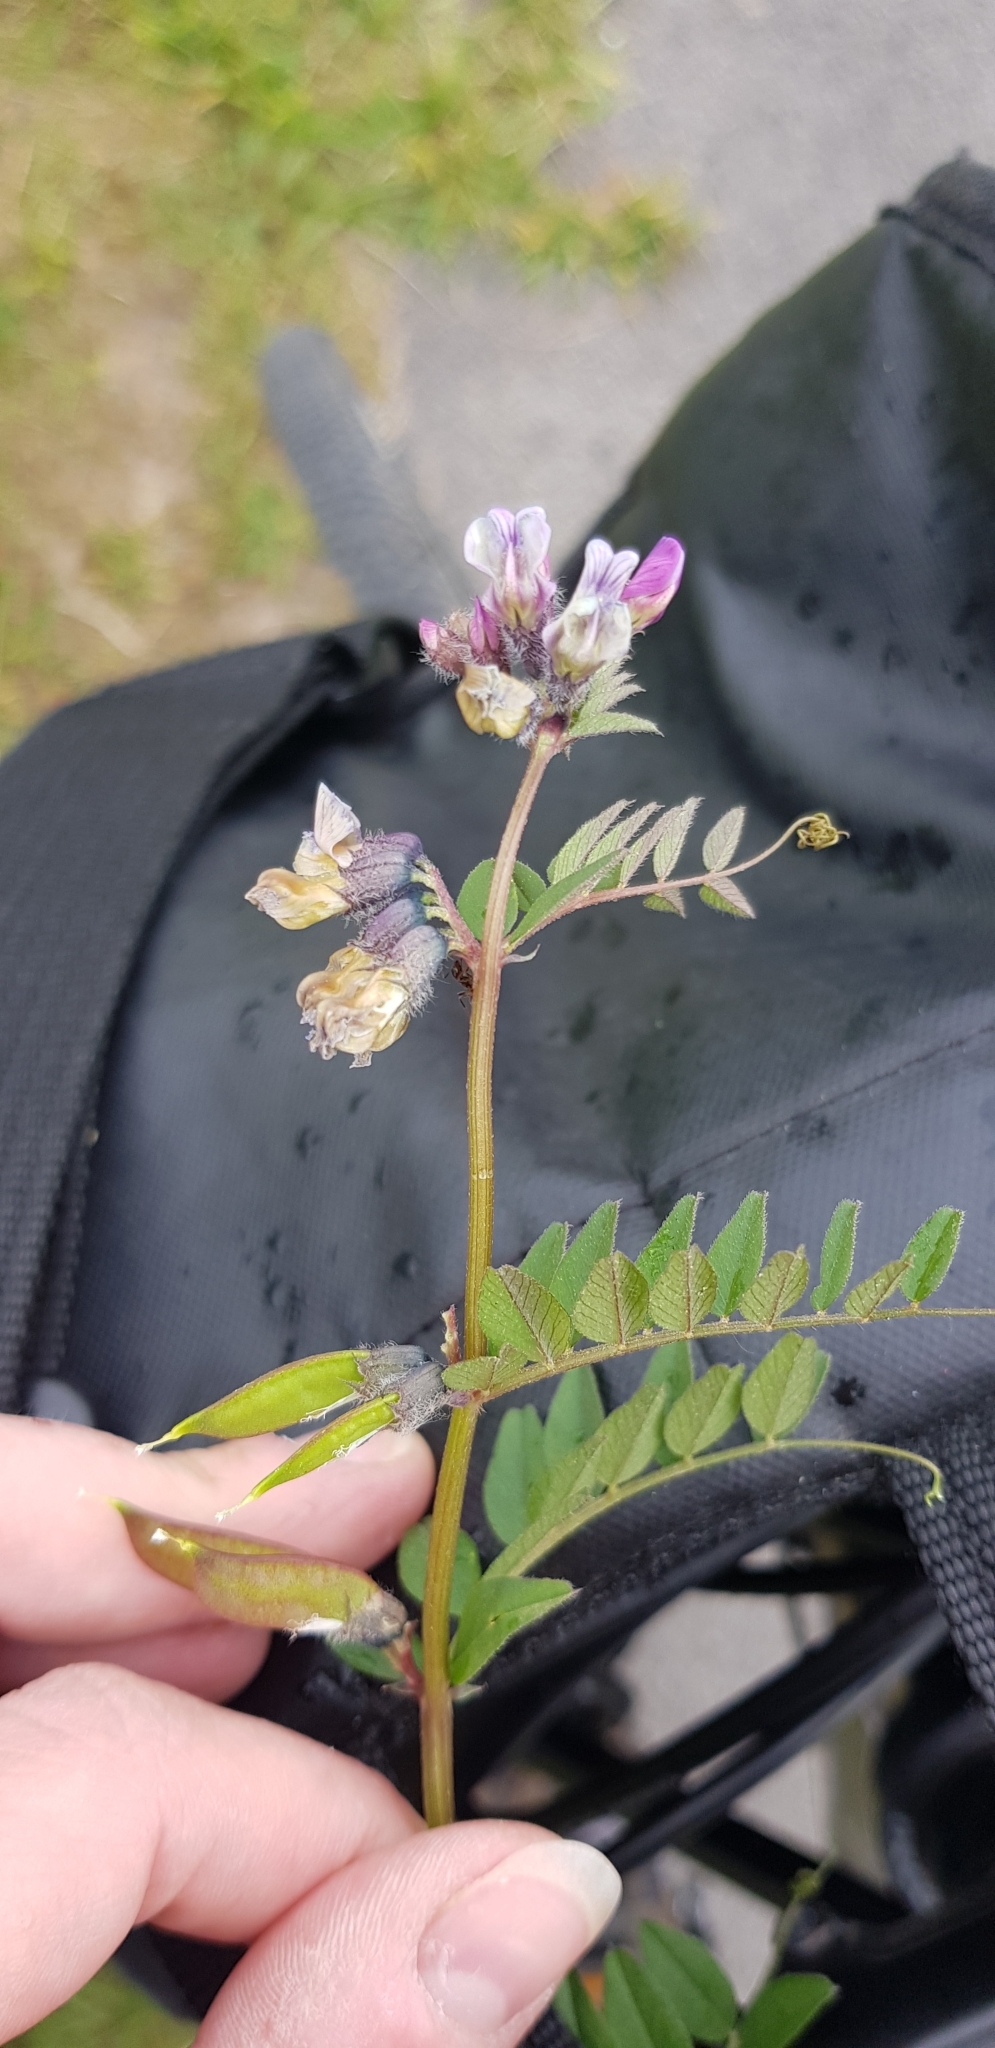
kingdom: Plantae
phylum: Tracheophyta
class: Magnoliopsida
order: Fabales
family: Fabaceae
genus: Vicia
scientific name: Vicia sepium
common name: Bush vetch
